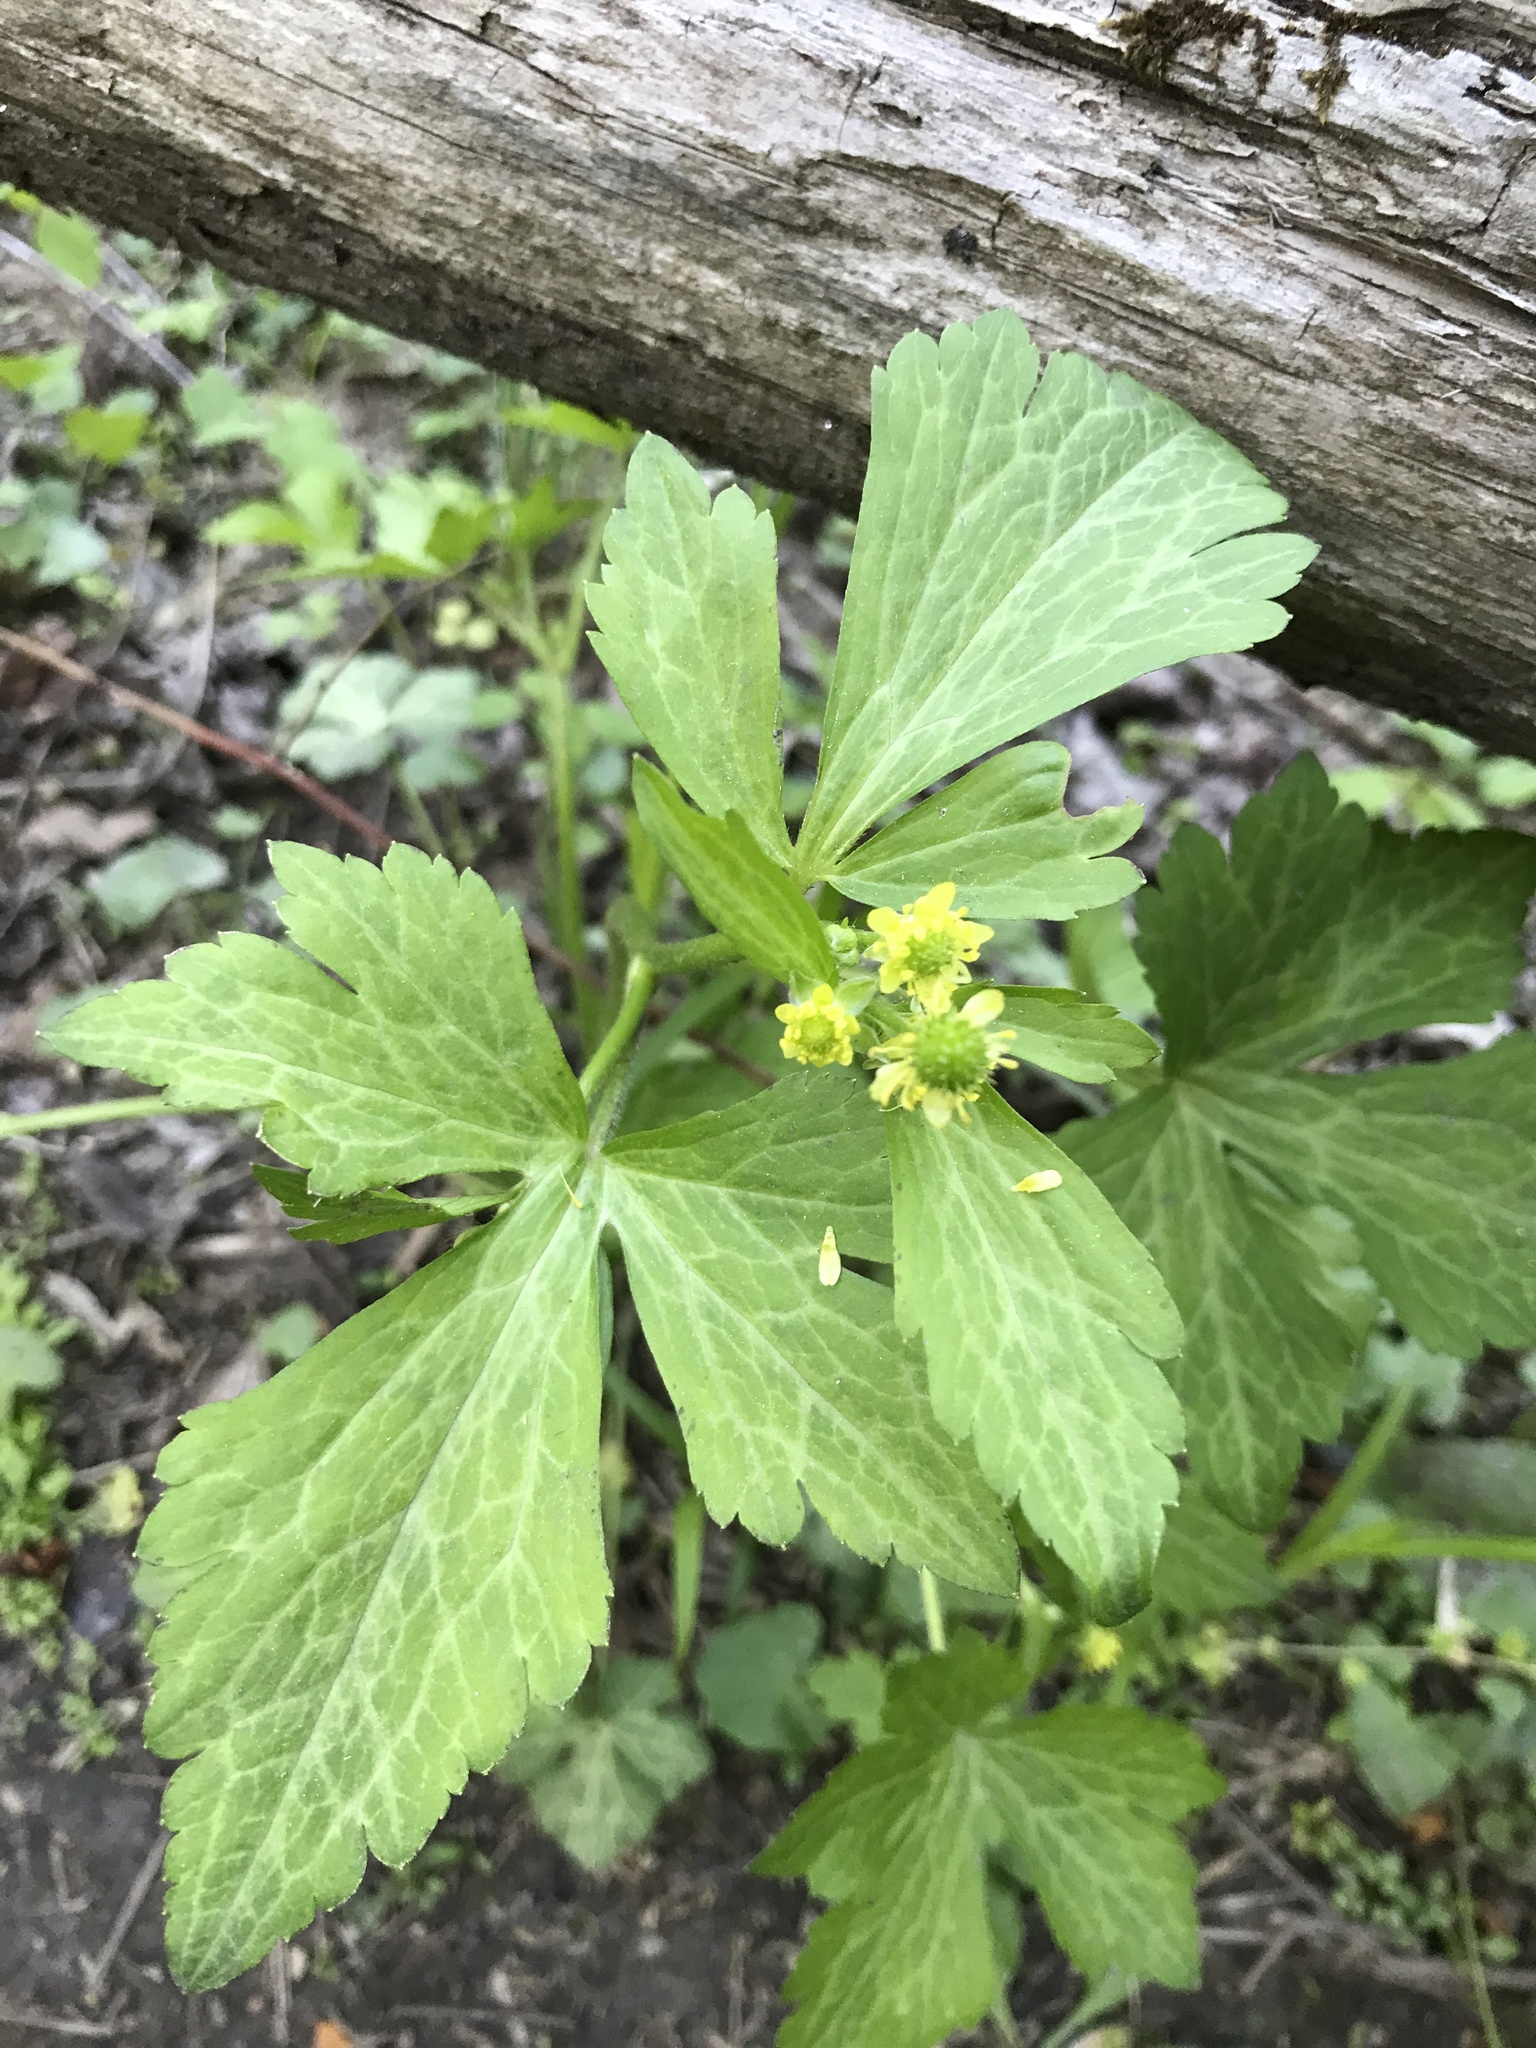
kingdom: Plantae
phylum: Tracheophyta
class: Magnoliopsida
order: Ranunculales
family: Ranunculaceae
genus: Ranunculus
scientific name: Ranunculus recurvatus
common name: Blisterwort
